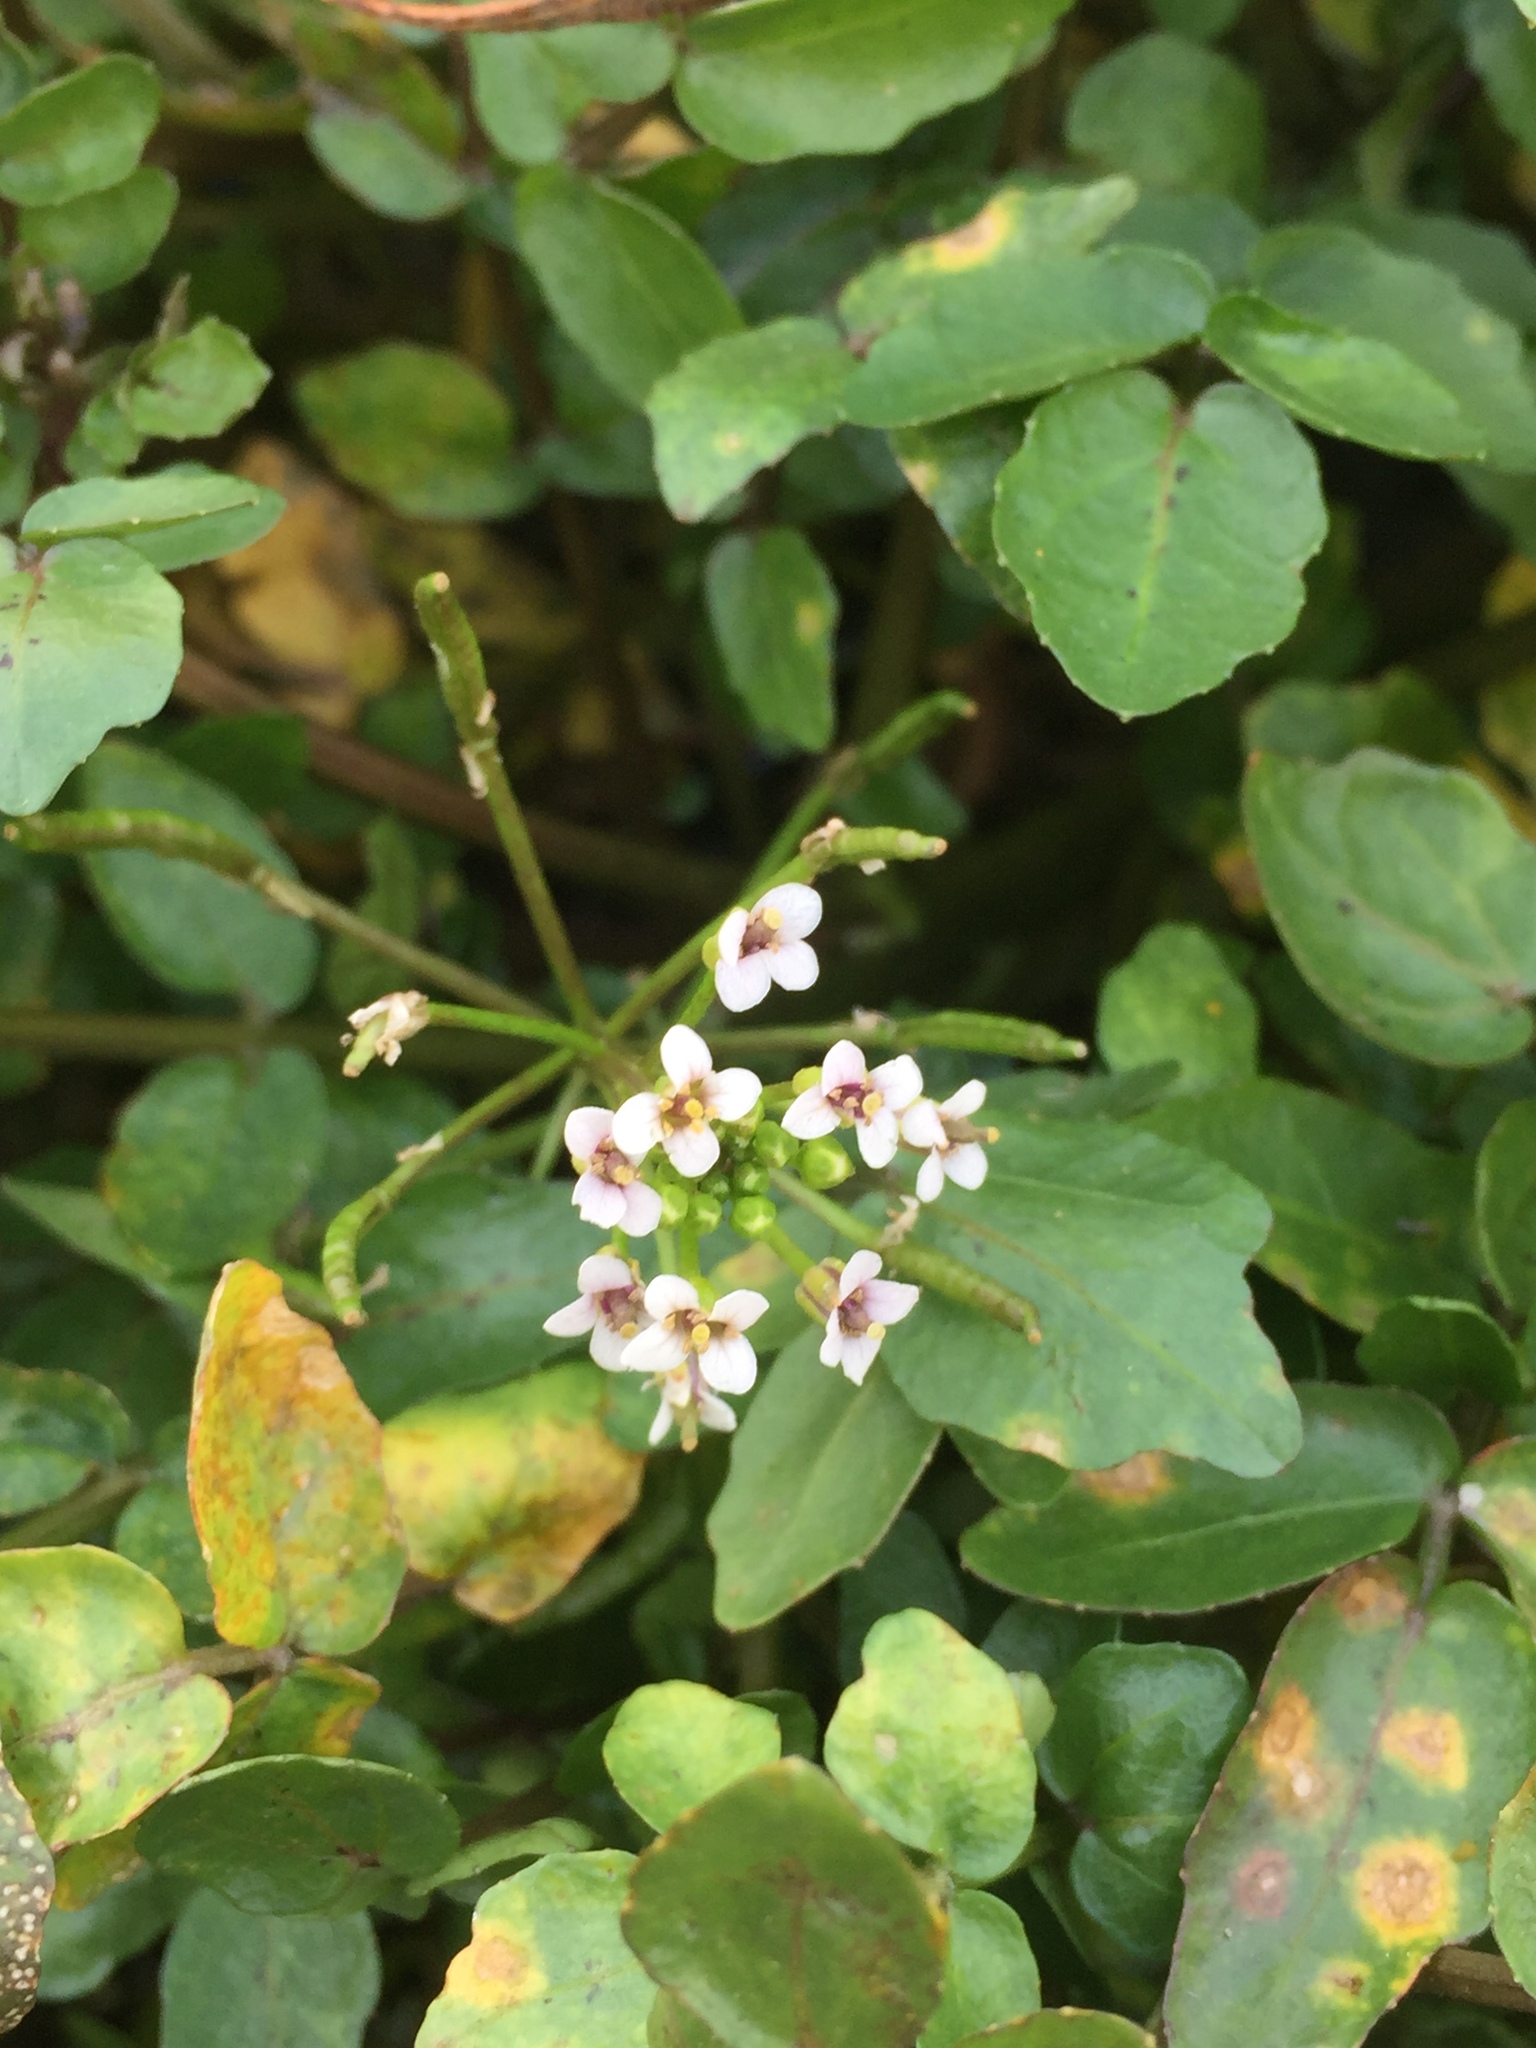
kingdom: Plantae
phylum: Tracheophyta
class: Magnoliopsida
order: Brassicales
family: Brassicaceae
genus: Nasturtium
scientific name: Nasturtium officinale
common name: Watercress
